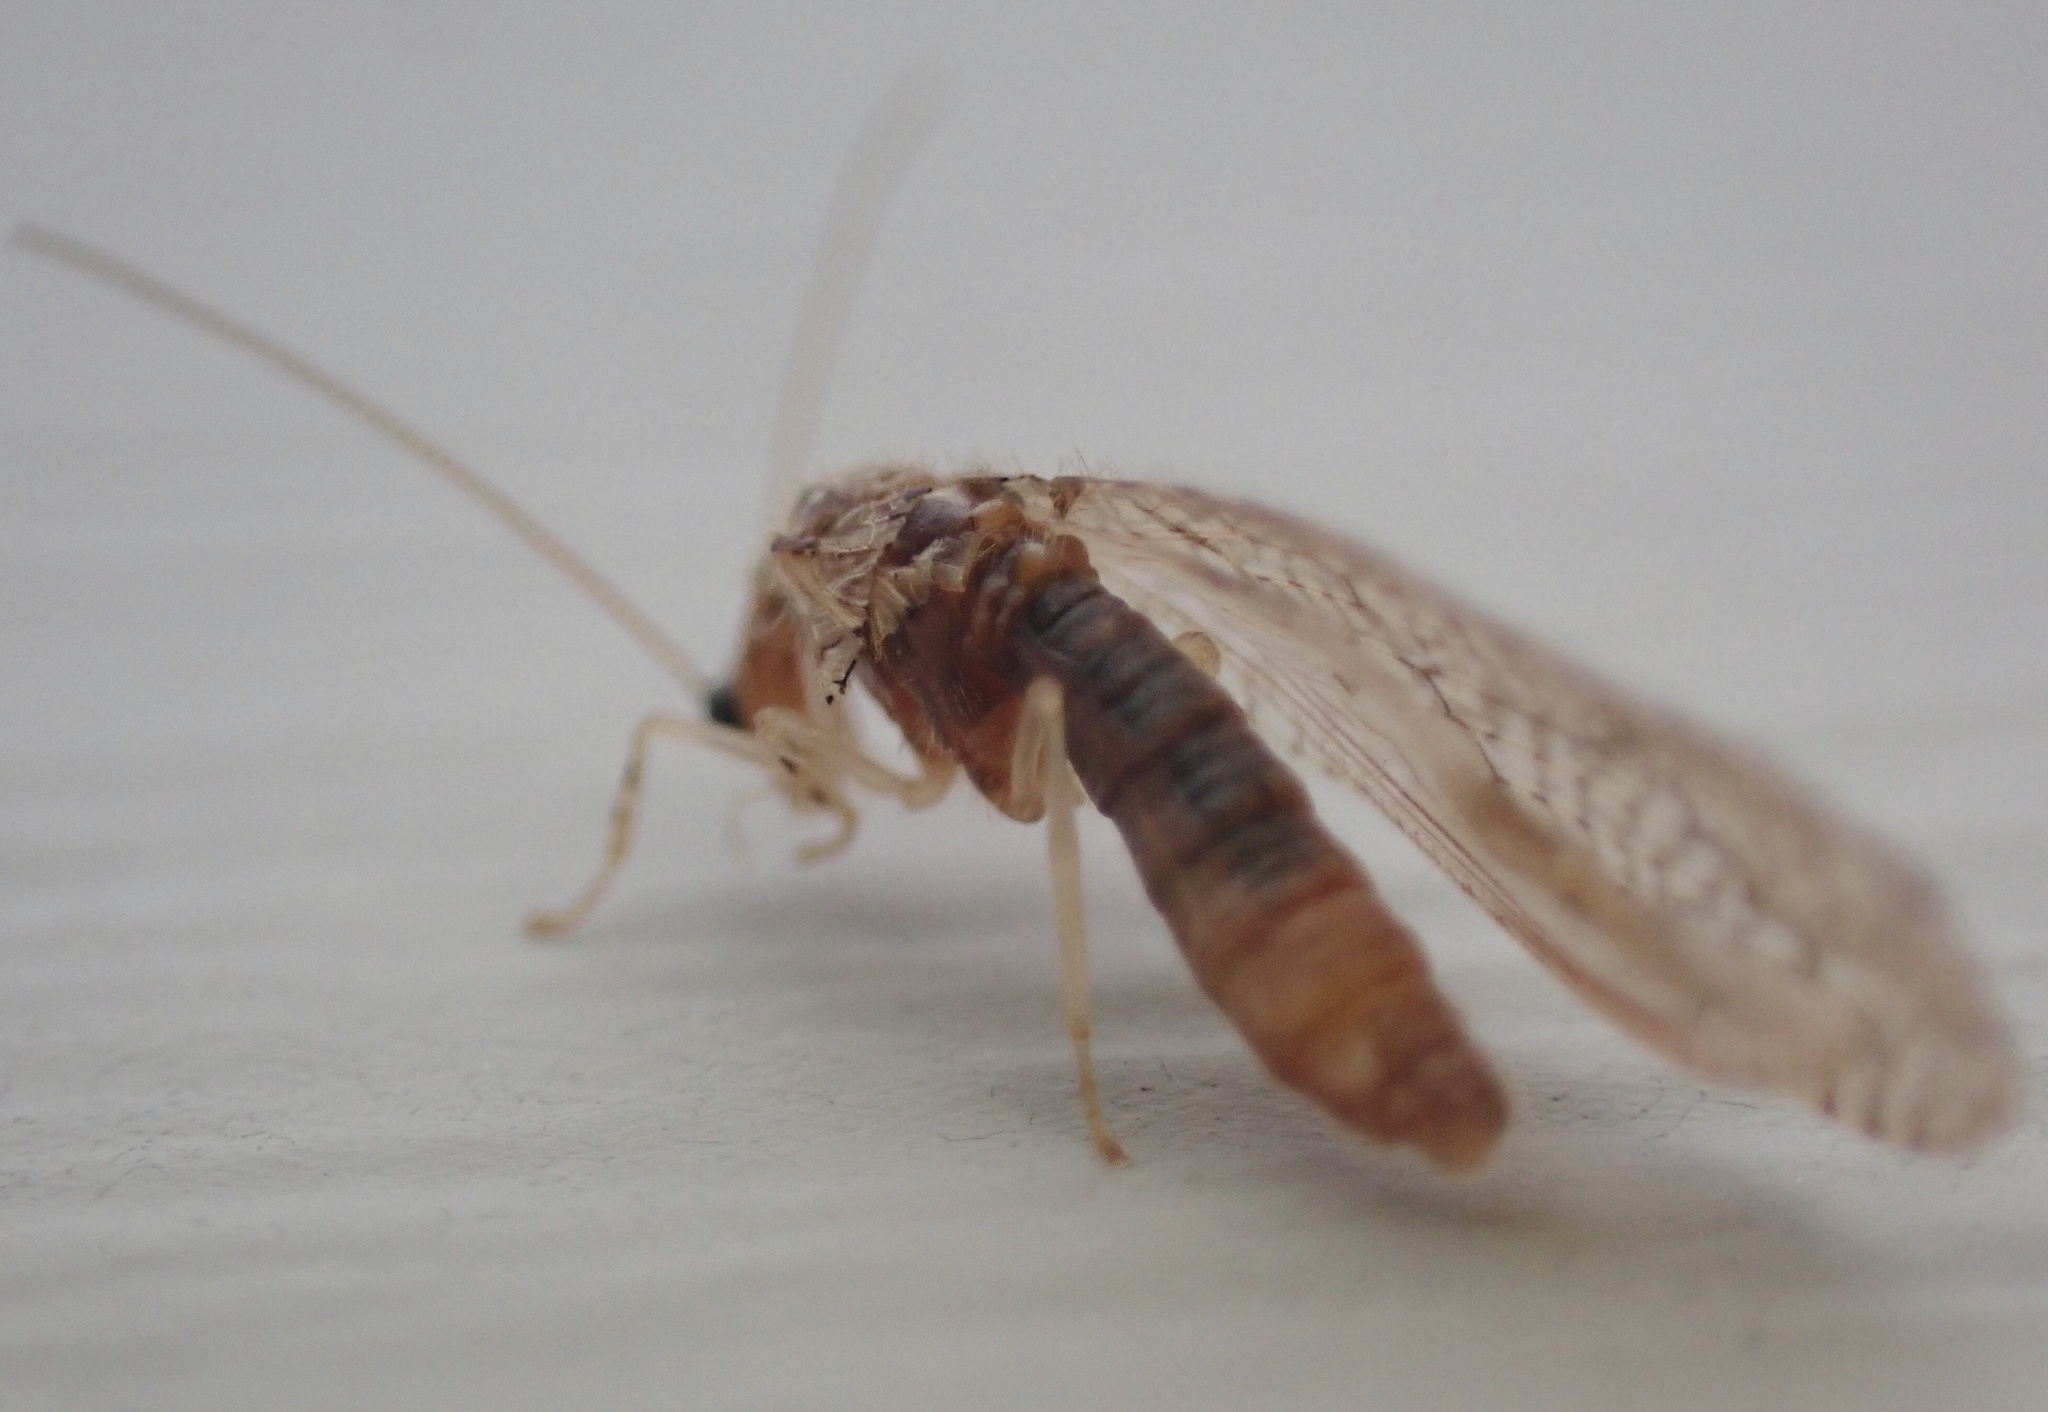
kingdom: Animalia
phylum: Arthropoda
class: Insecta
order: Neuroptera
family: Hemerobiidae
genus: Micromus
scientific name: Micromus posticus
